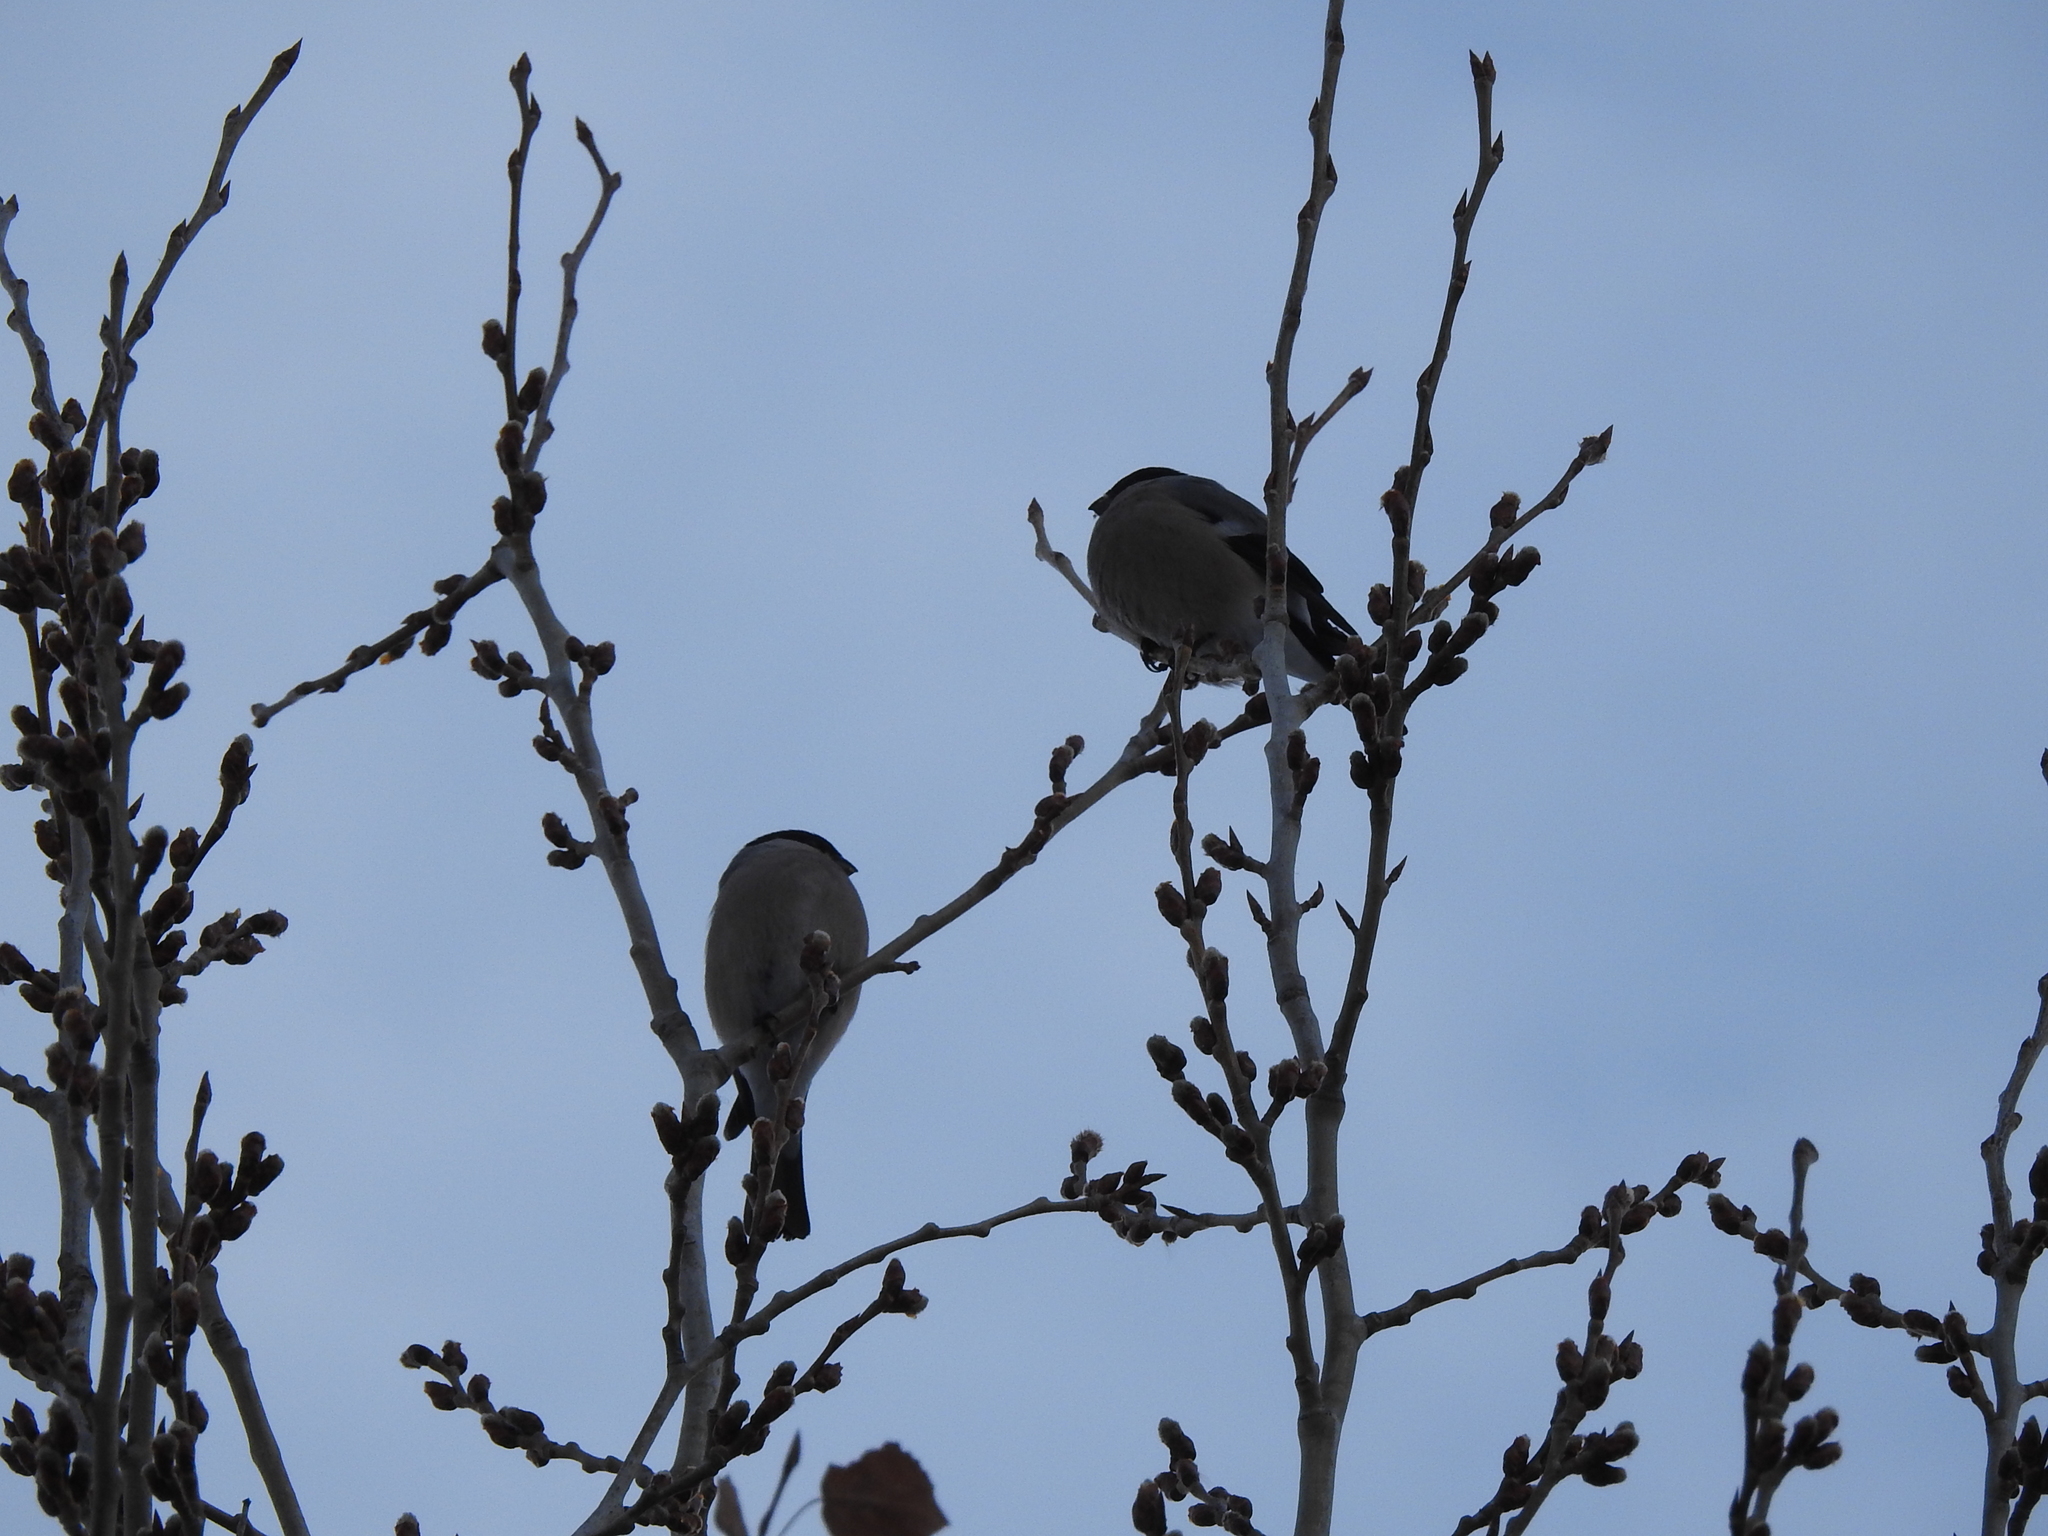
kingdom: Animalia
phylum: Chordata
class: Aves
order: Passeriformes
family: Fringillidae
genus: Pyrrhula
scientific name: Pyrrhula pyrrhula
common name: Eurasian bullfinch
